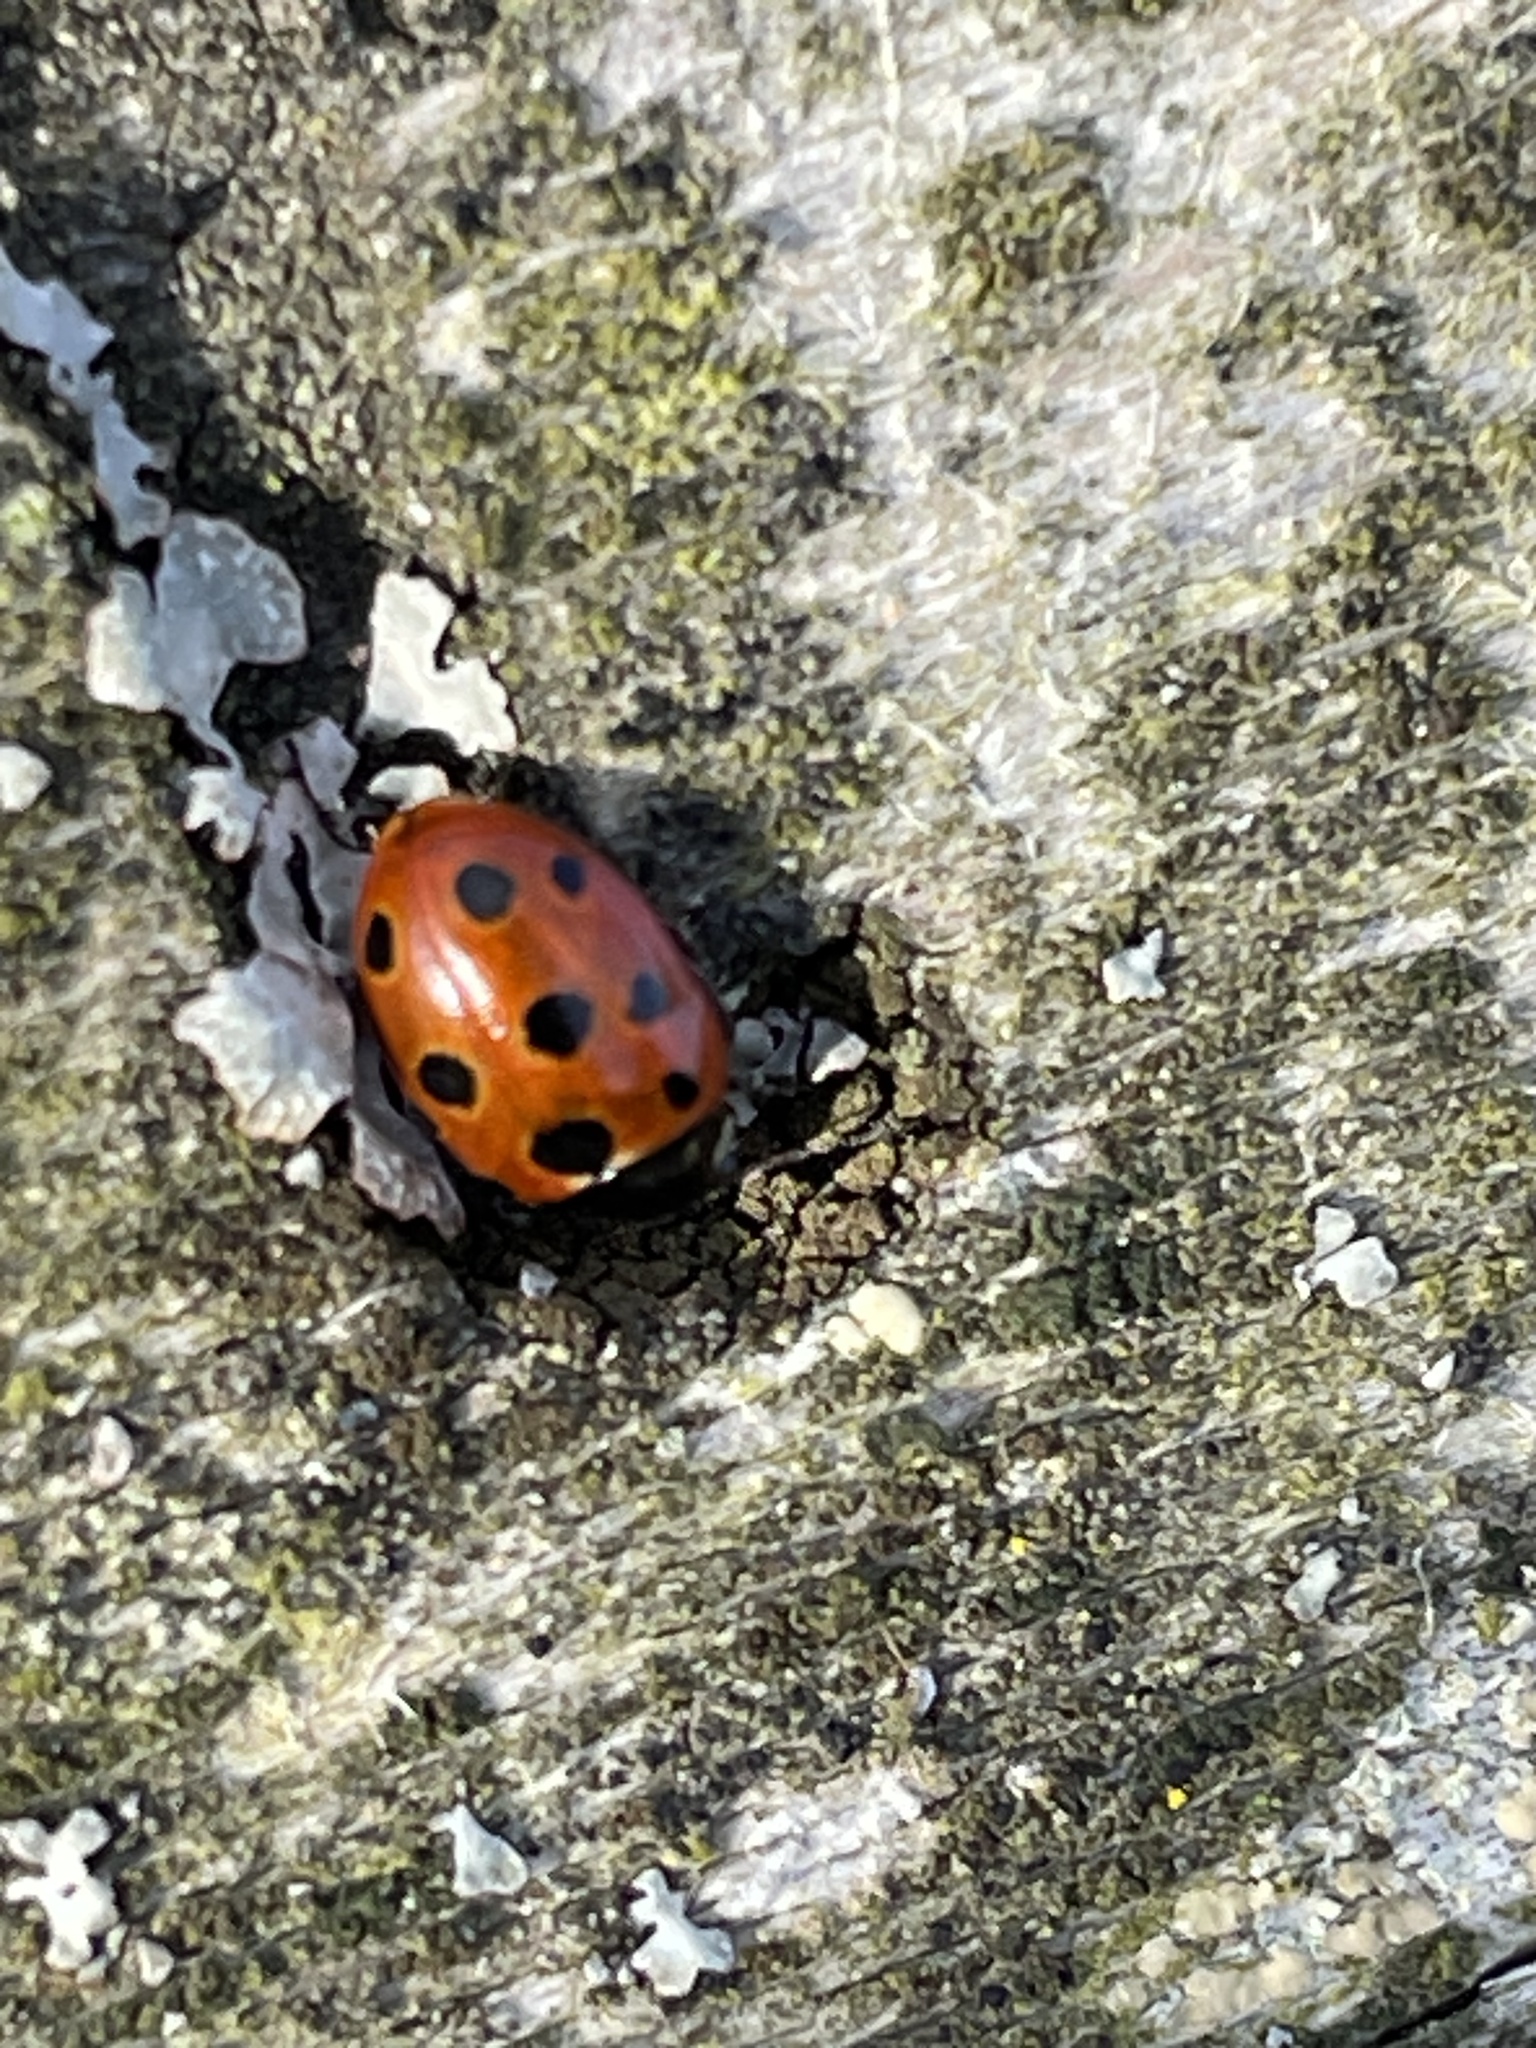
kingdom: Animalia
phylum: Arthropoda
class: Insecta
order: Coleoptera
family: Coccinellidae
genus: Coccinella
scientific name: Coccinella undecimpunctata
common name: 11-spot ladybird
